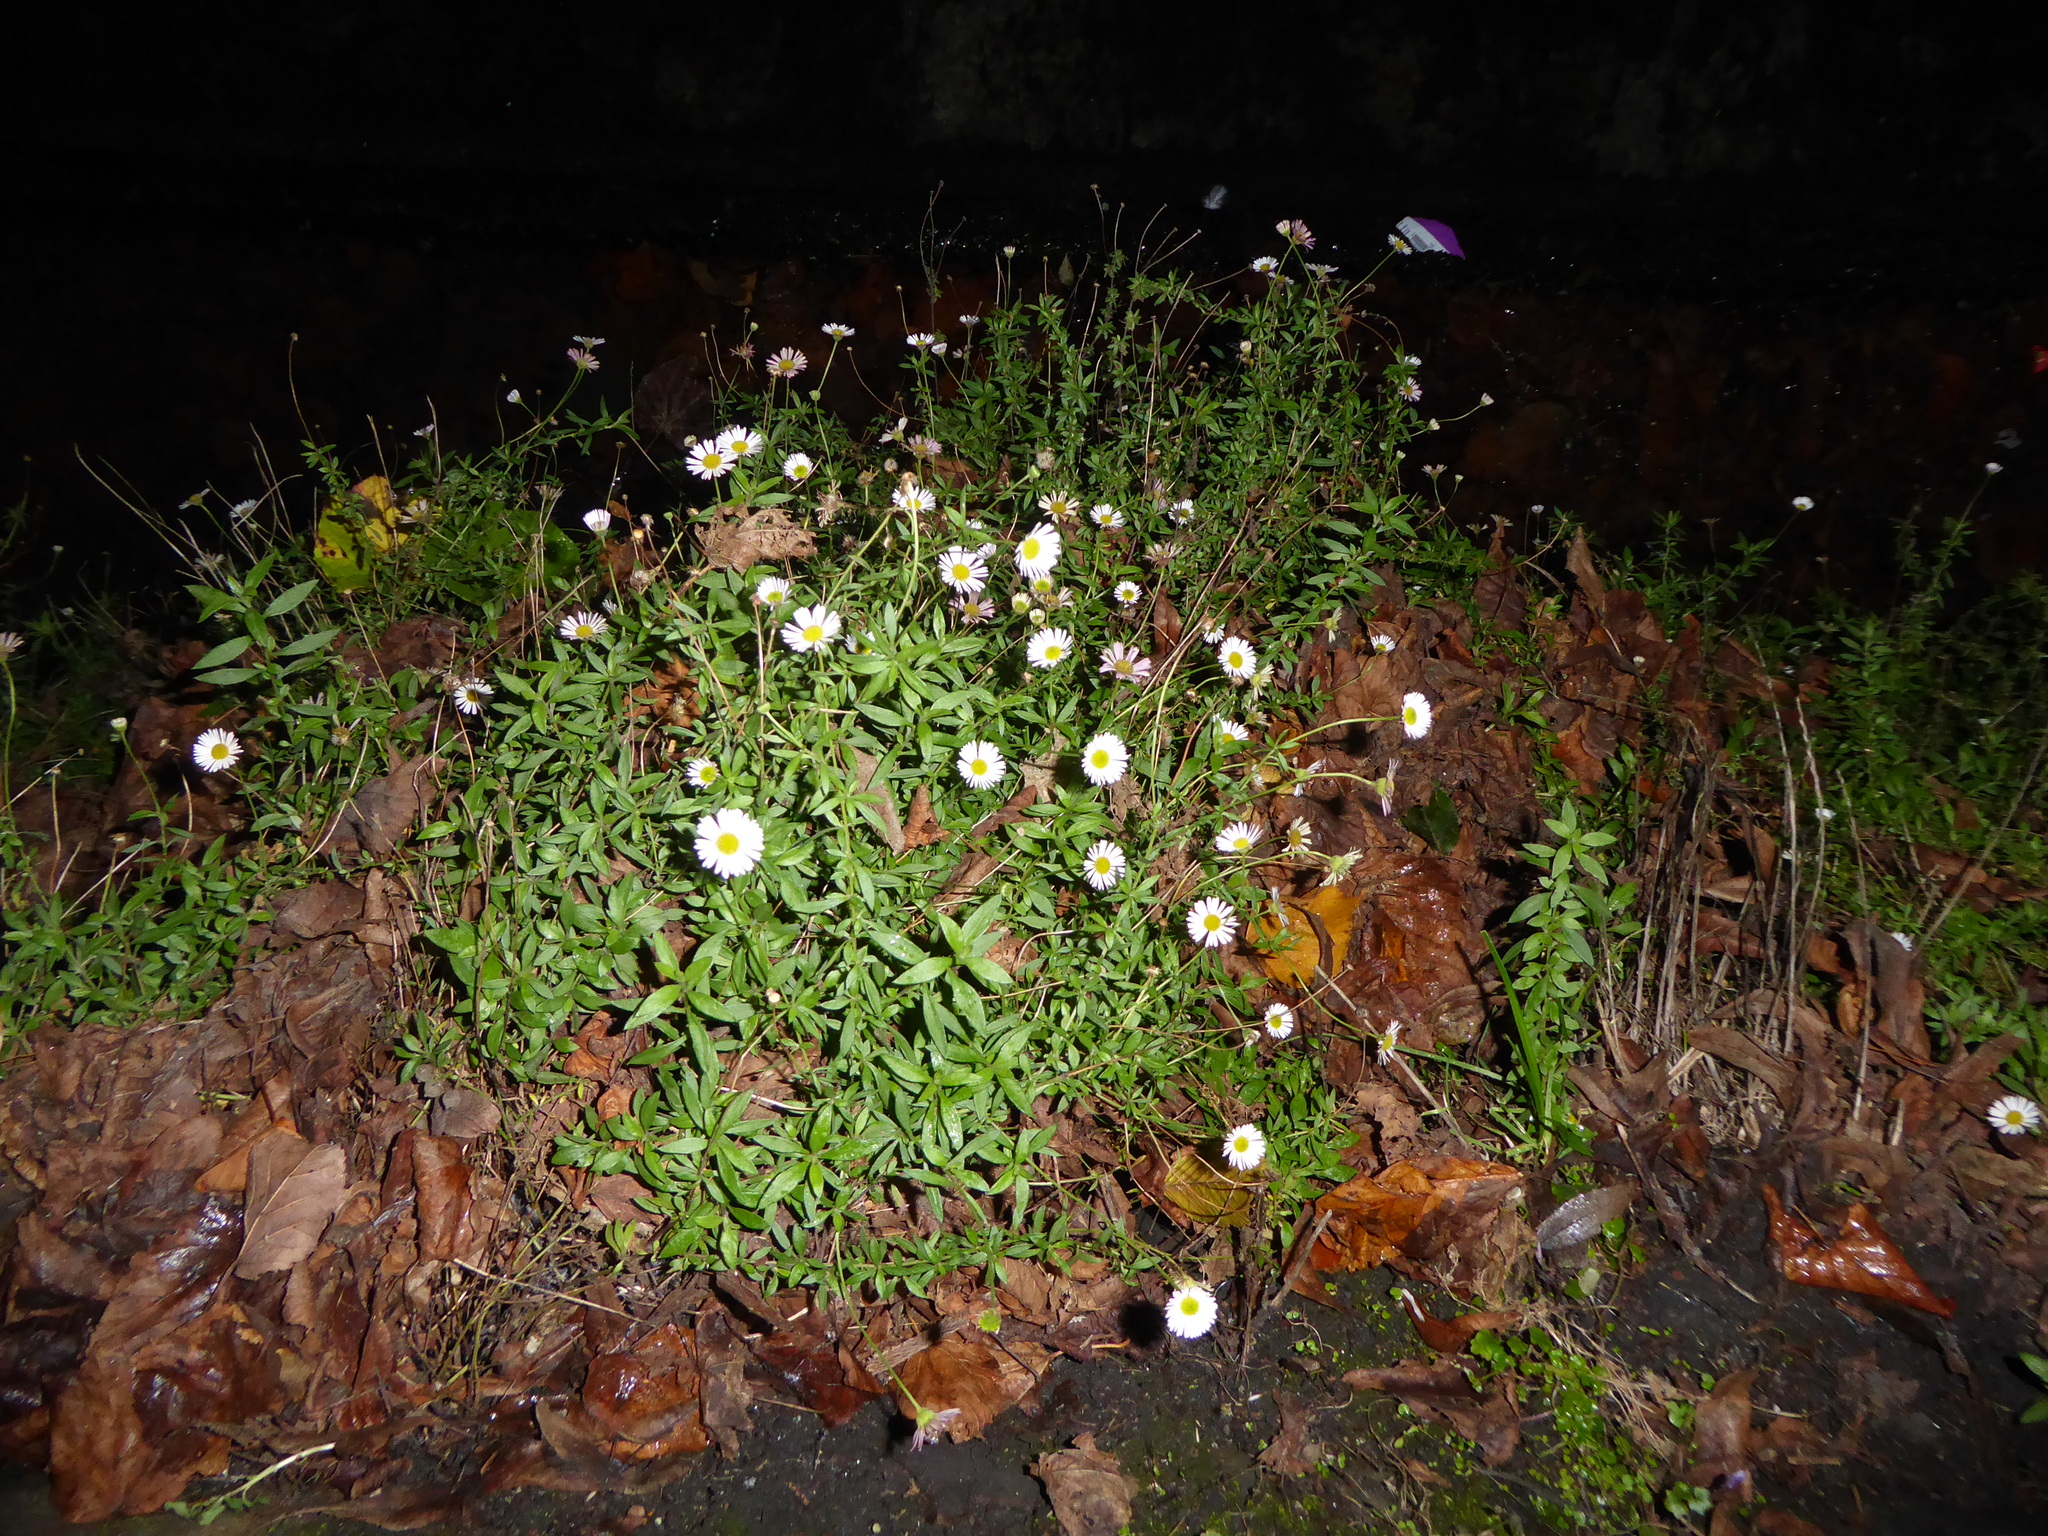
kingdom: Plantae
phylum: Tracheophyta
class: Magnoliopsida
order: Asterales
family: Asteraceae
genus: Erigeron
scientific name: Erigeron karvinskianus
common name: Mexican fleabane
